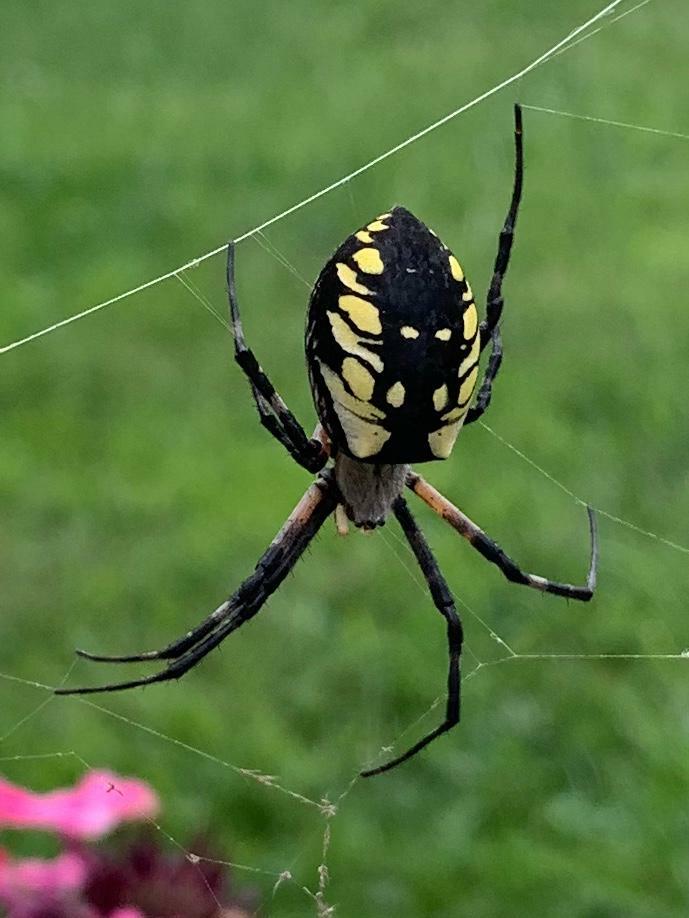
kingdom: Animalia
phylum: Arthropoda
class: Arachnida
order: Araneae
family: Araneidae
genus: Argiope
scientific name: Argiope aurantia
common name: Orb weavers
